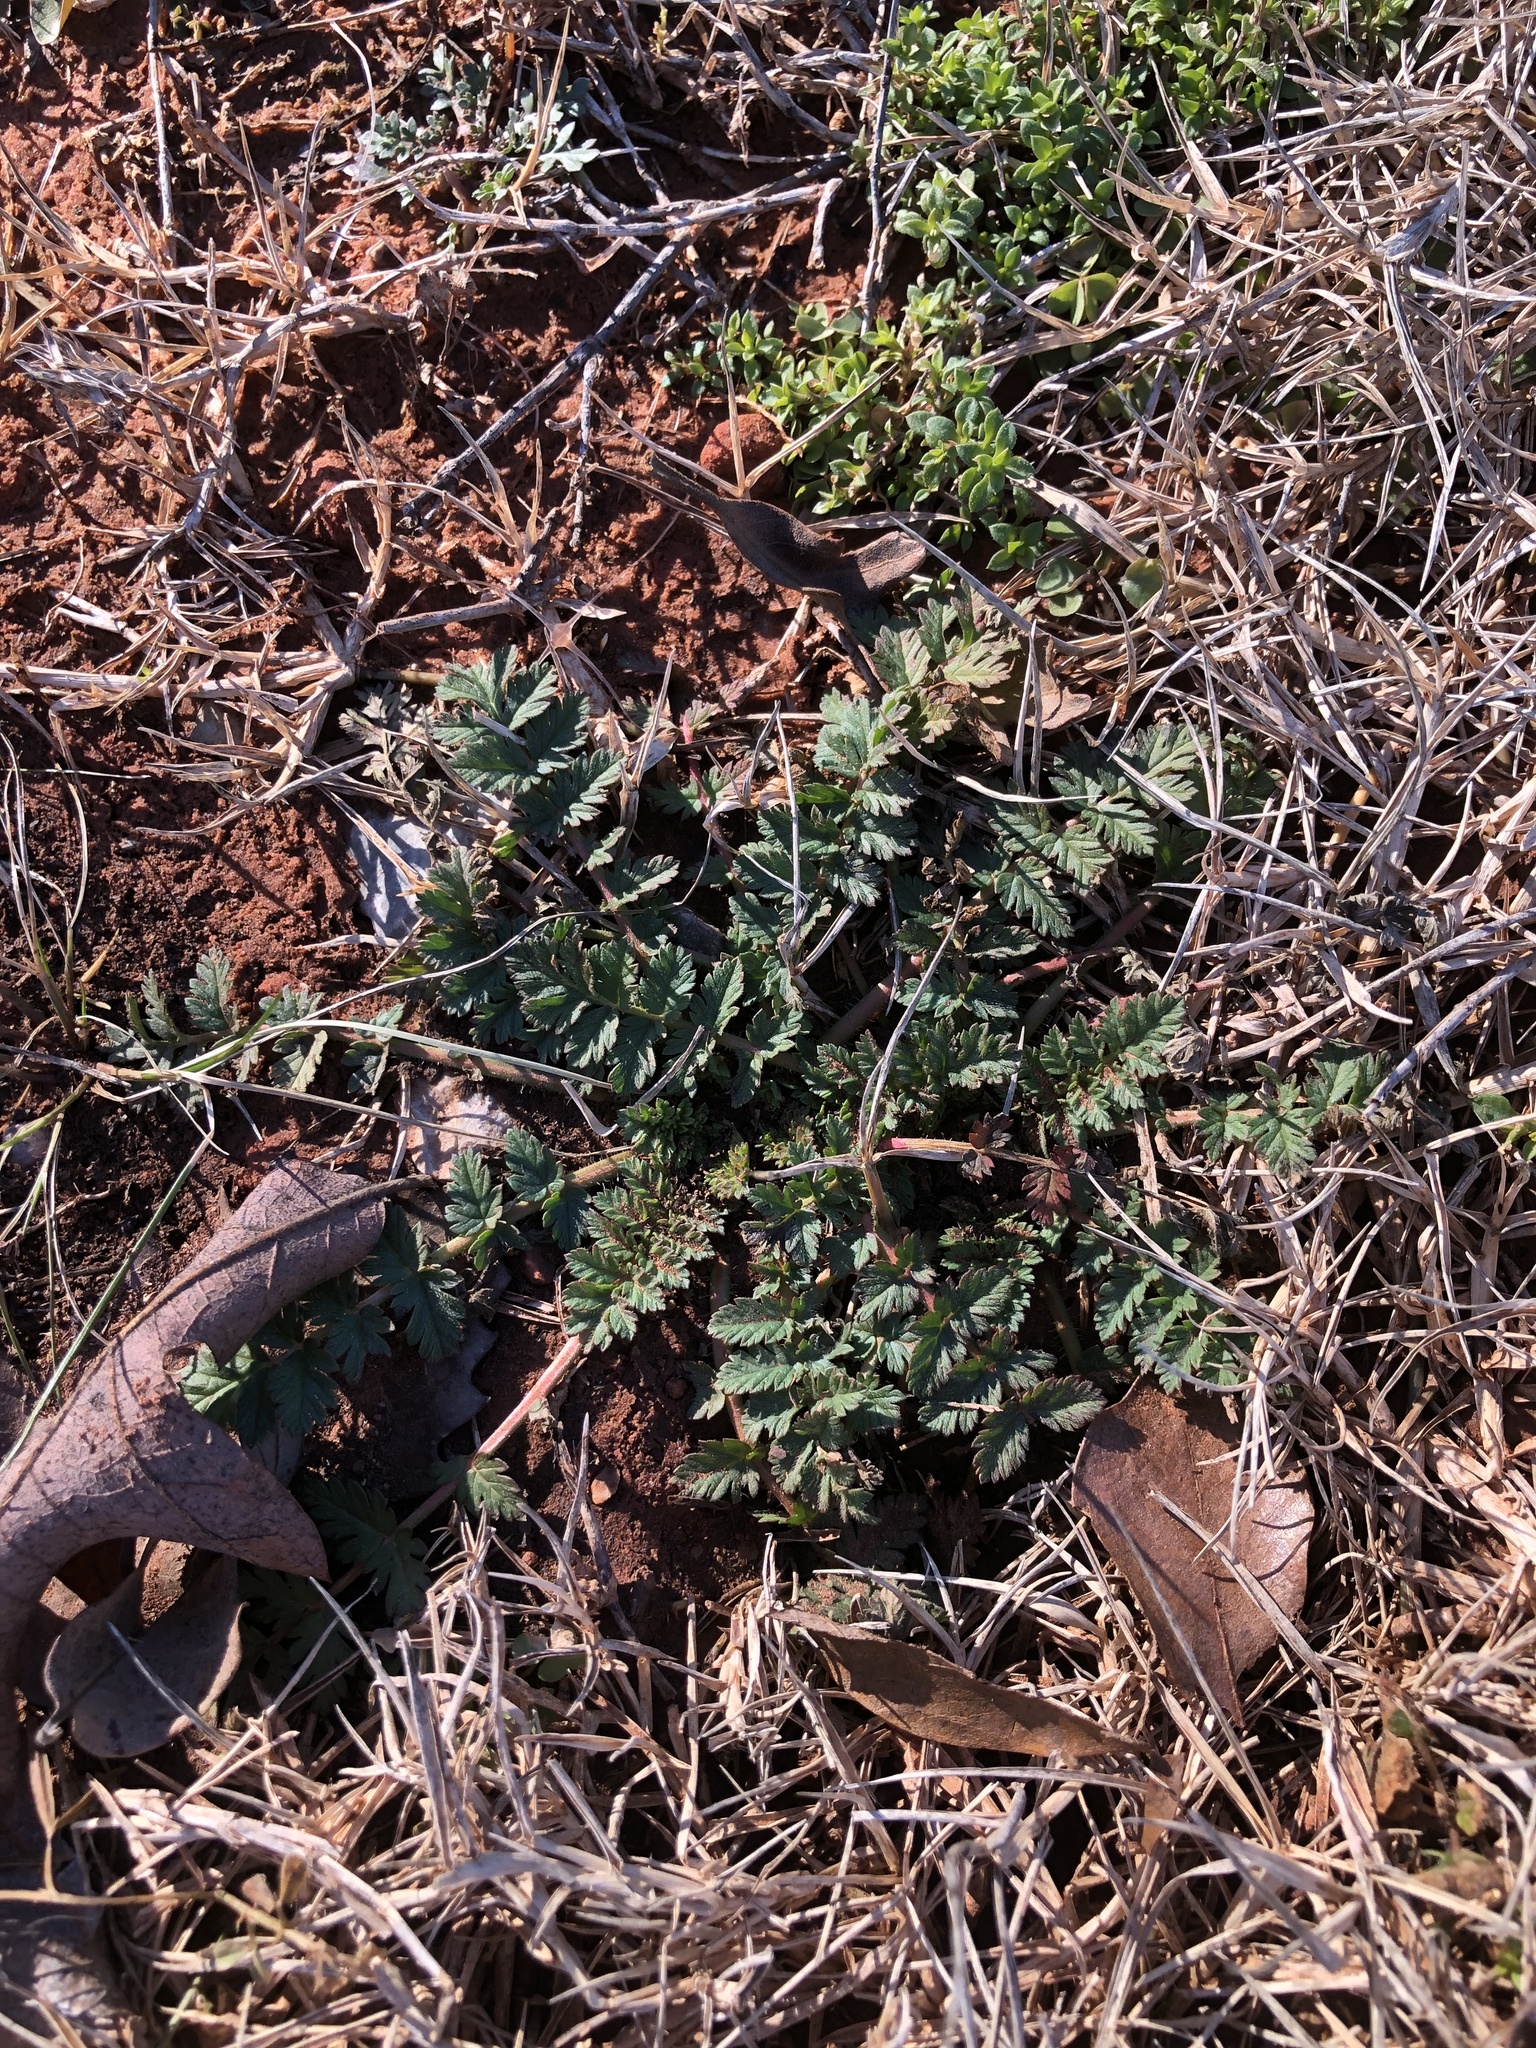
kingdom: Plantae
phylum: Tracheophyta
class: Magnoliopsida
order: Geraniales
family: Geraniaceae
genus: Erodium
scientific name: Erodium cicutarium
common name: Common stork's-bill
